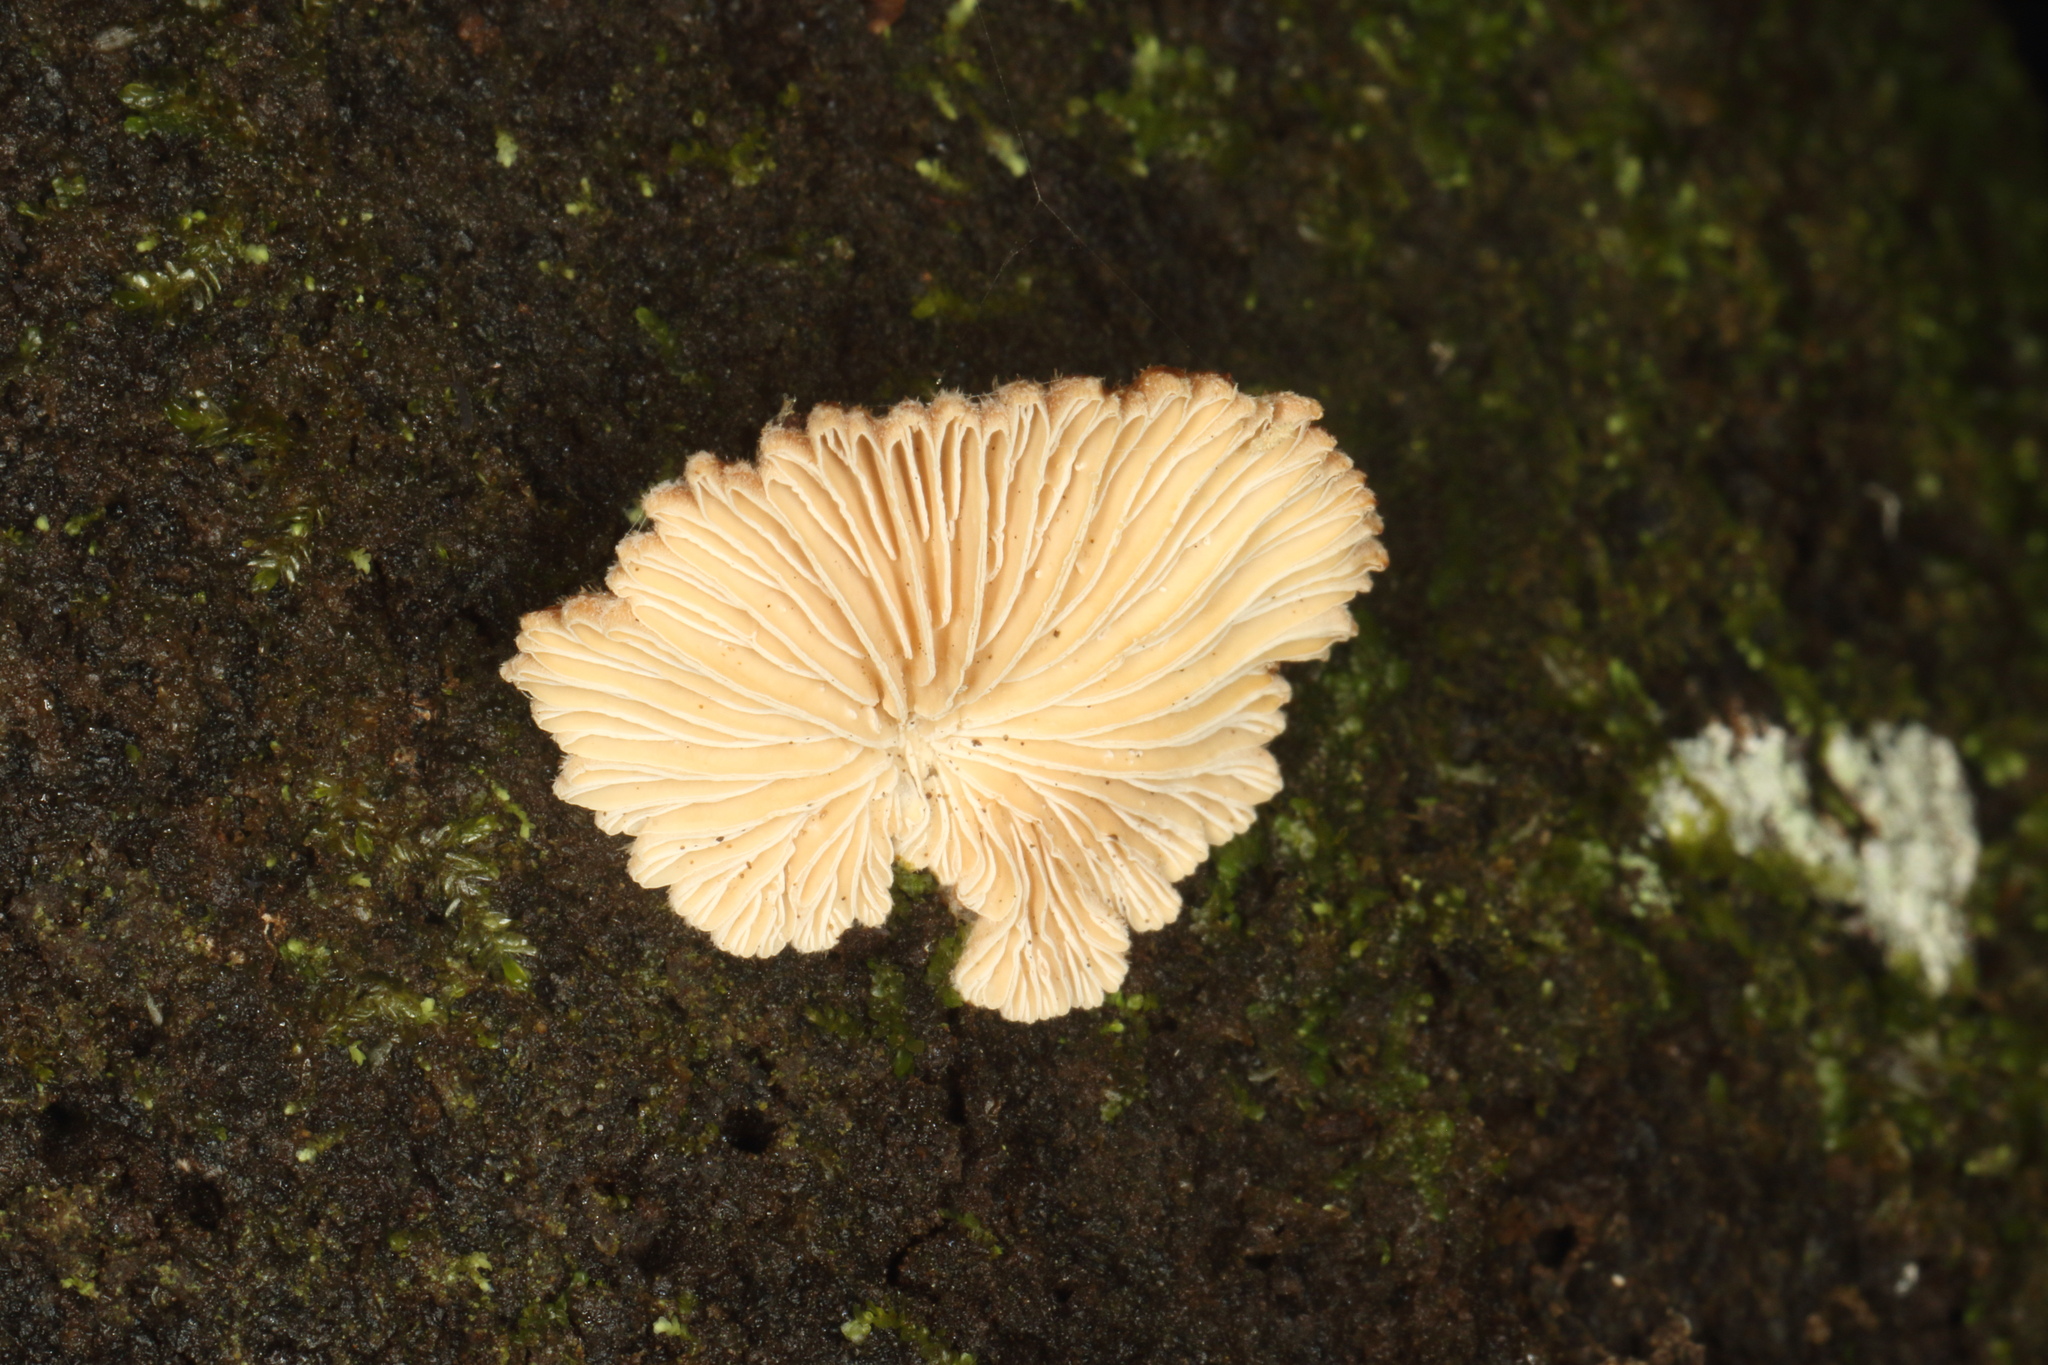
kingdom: Fungi
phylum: Basidiomycota
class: Agaricomycetes
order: Agaricales
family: Schizophyllaceae
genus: Schizophyllum
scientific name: Schizophyllum commune
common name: Common porecrust
